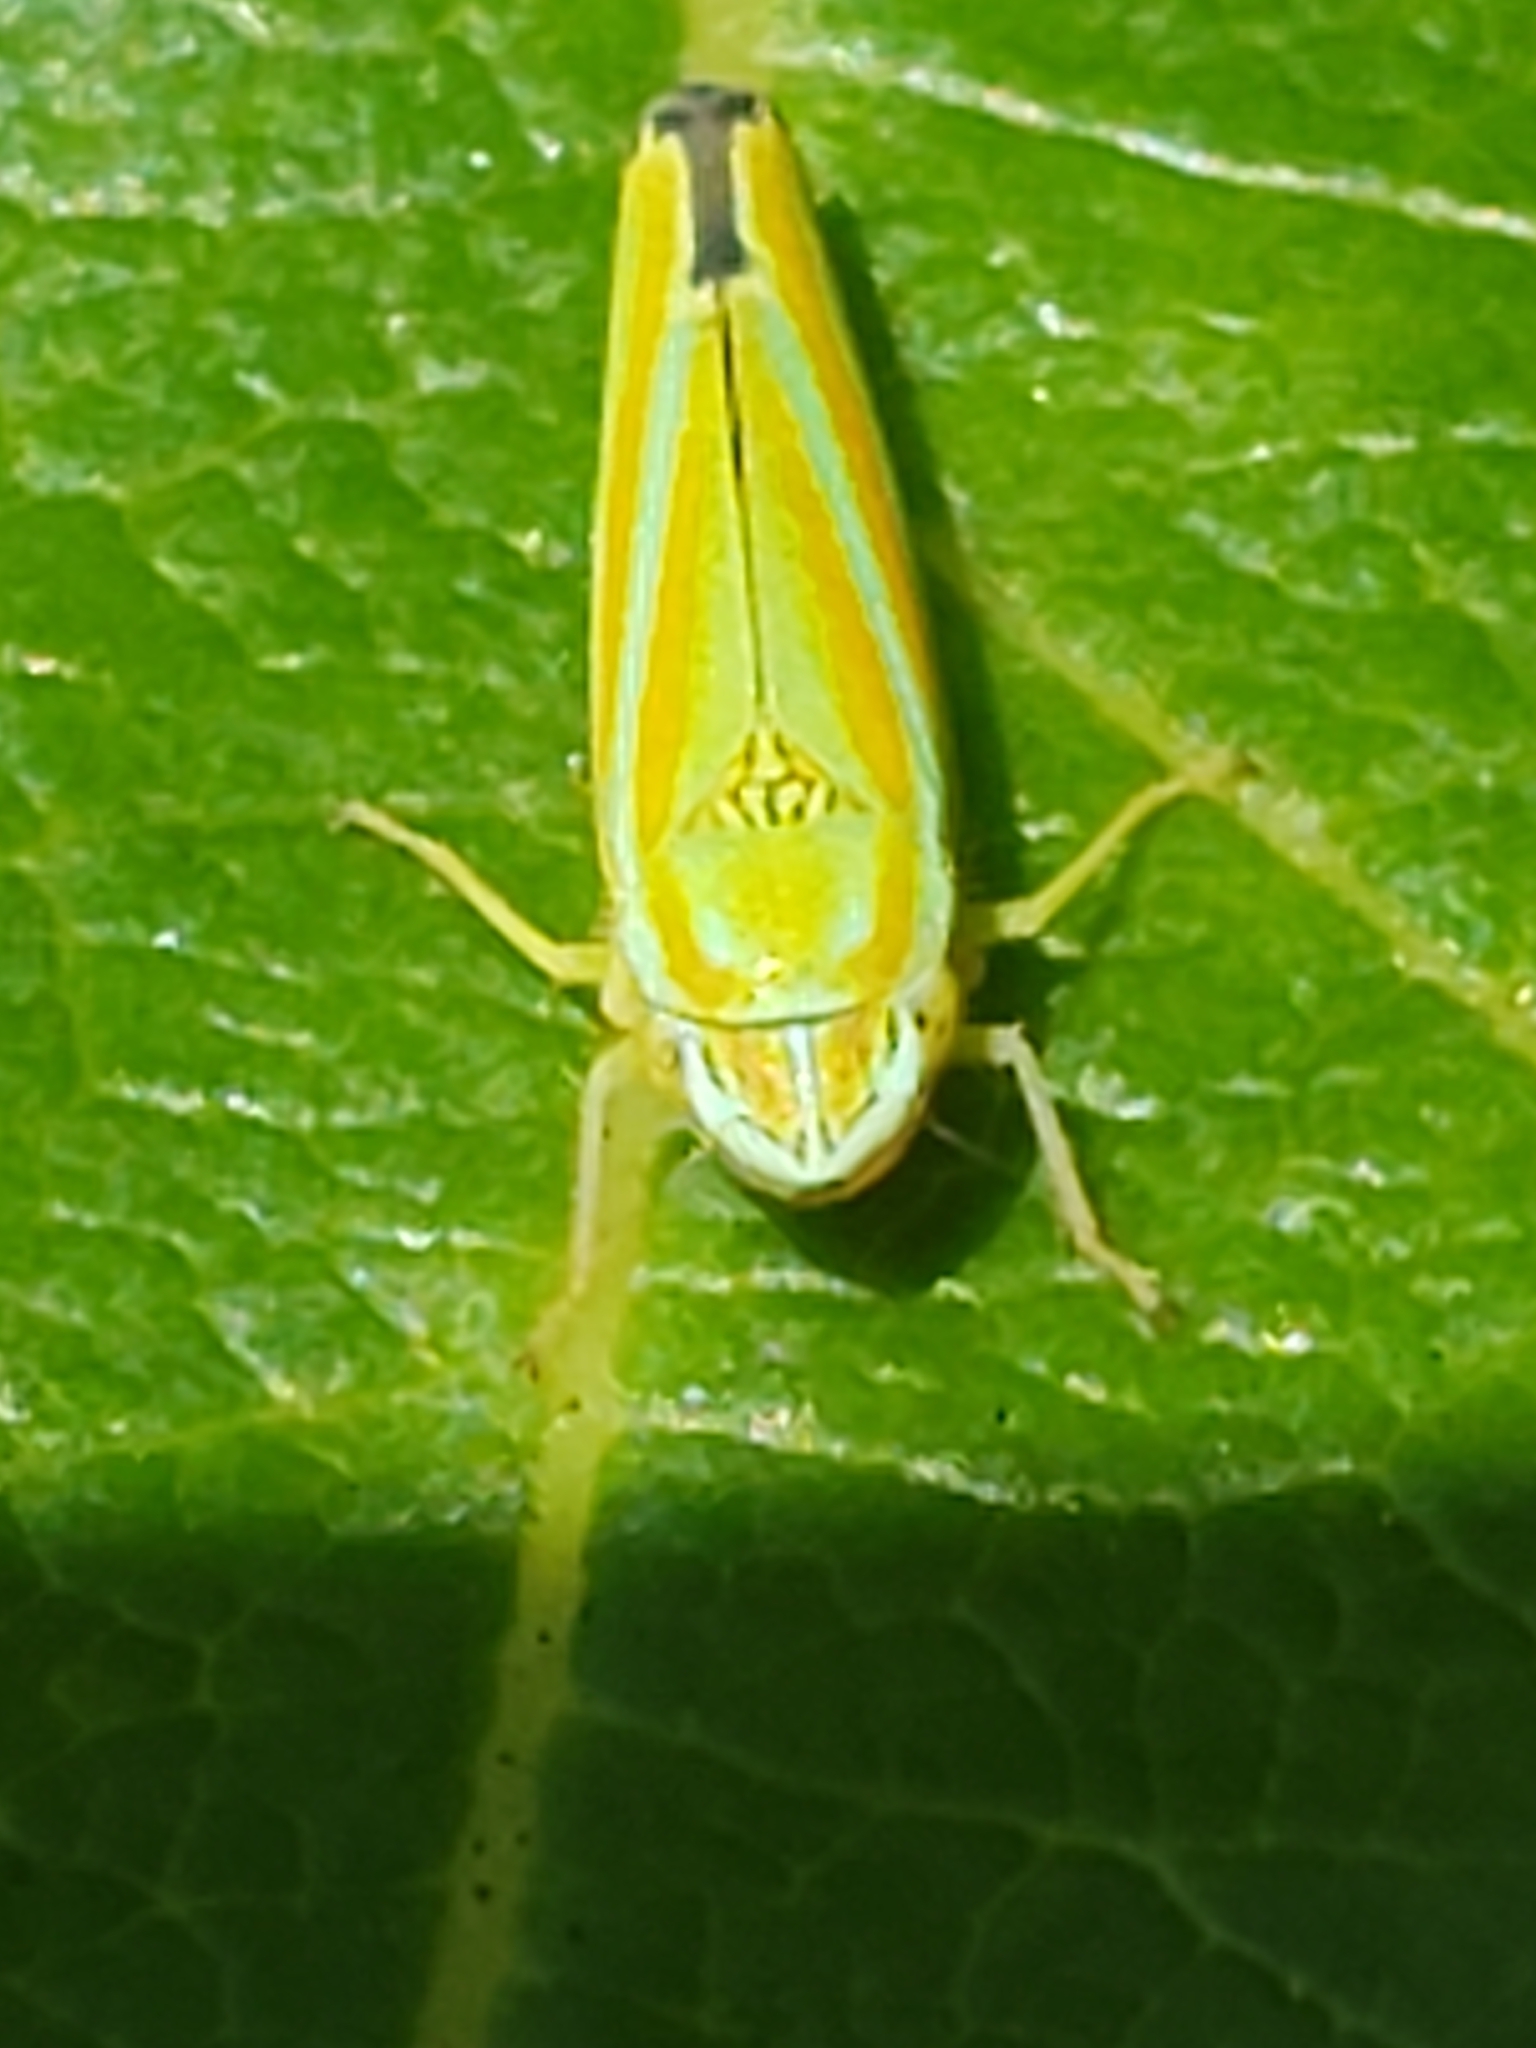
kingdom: Animalia
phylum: Arthropoda
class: Insecta
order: Hemiptera
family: Cicadellidae
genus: Graphocephala
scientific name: Graphocephala versuta
